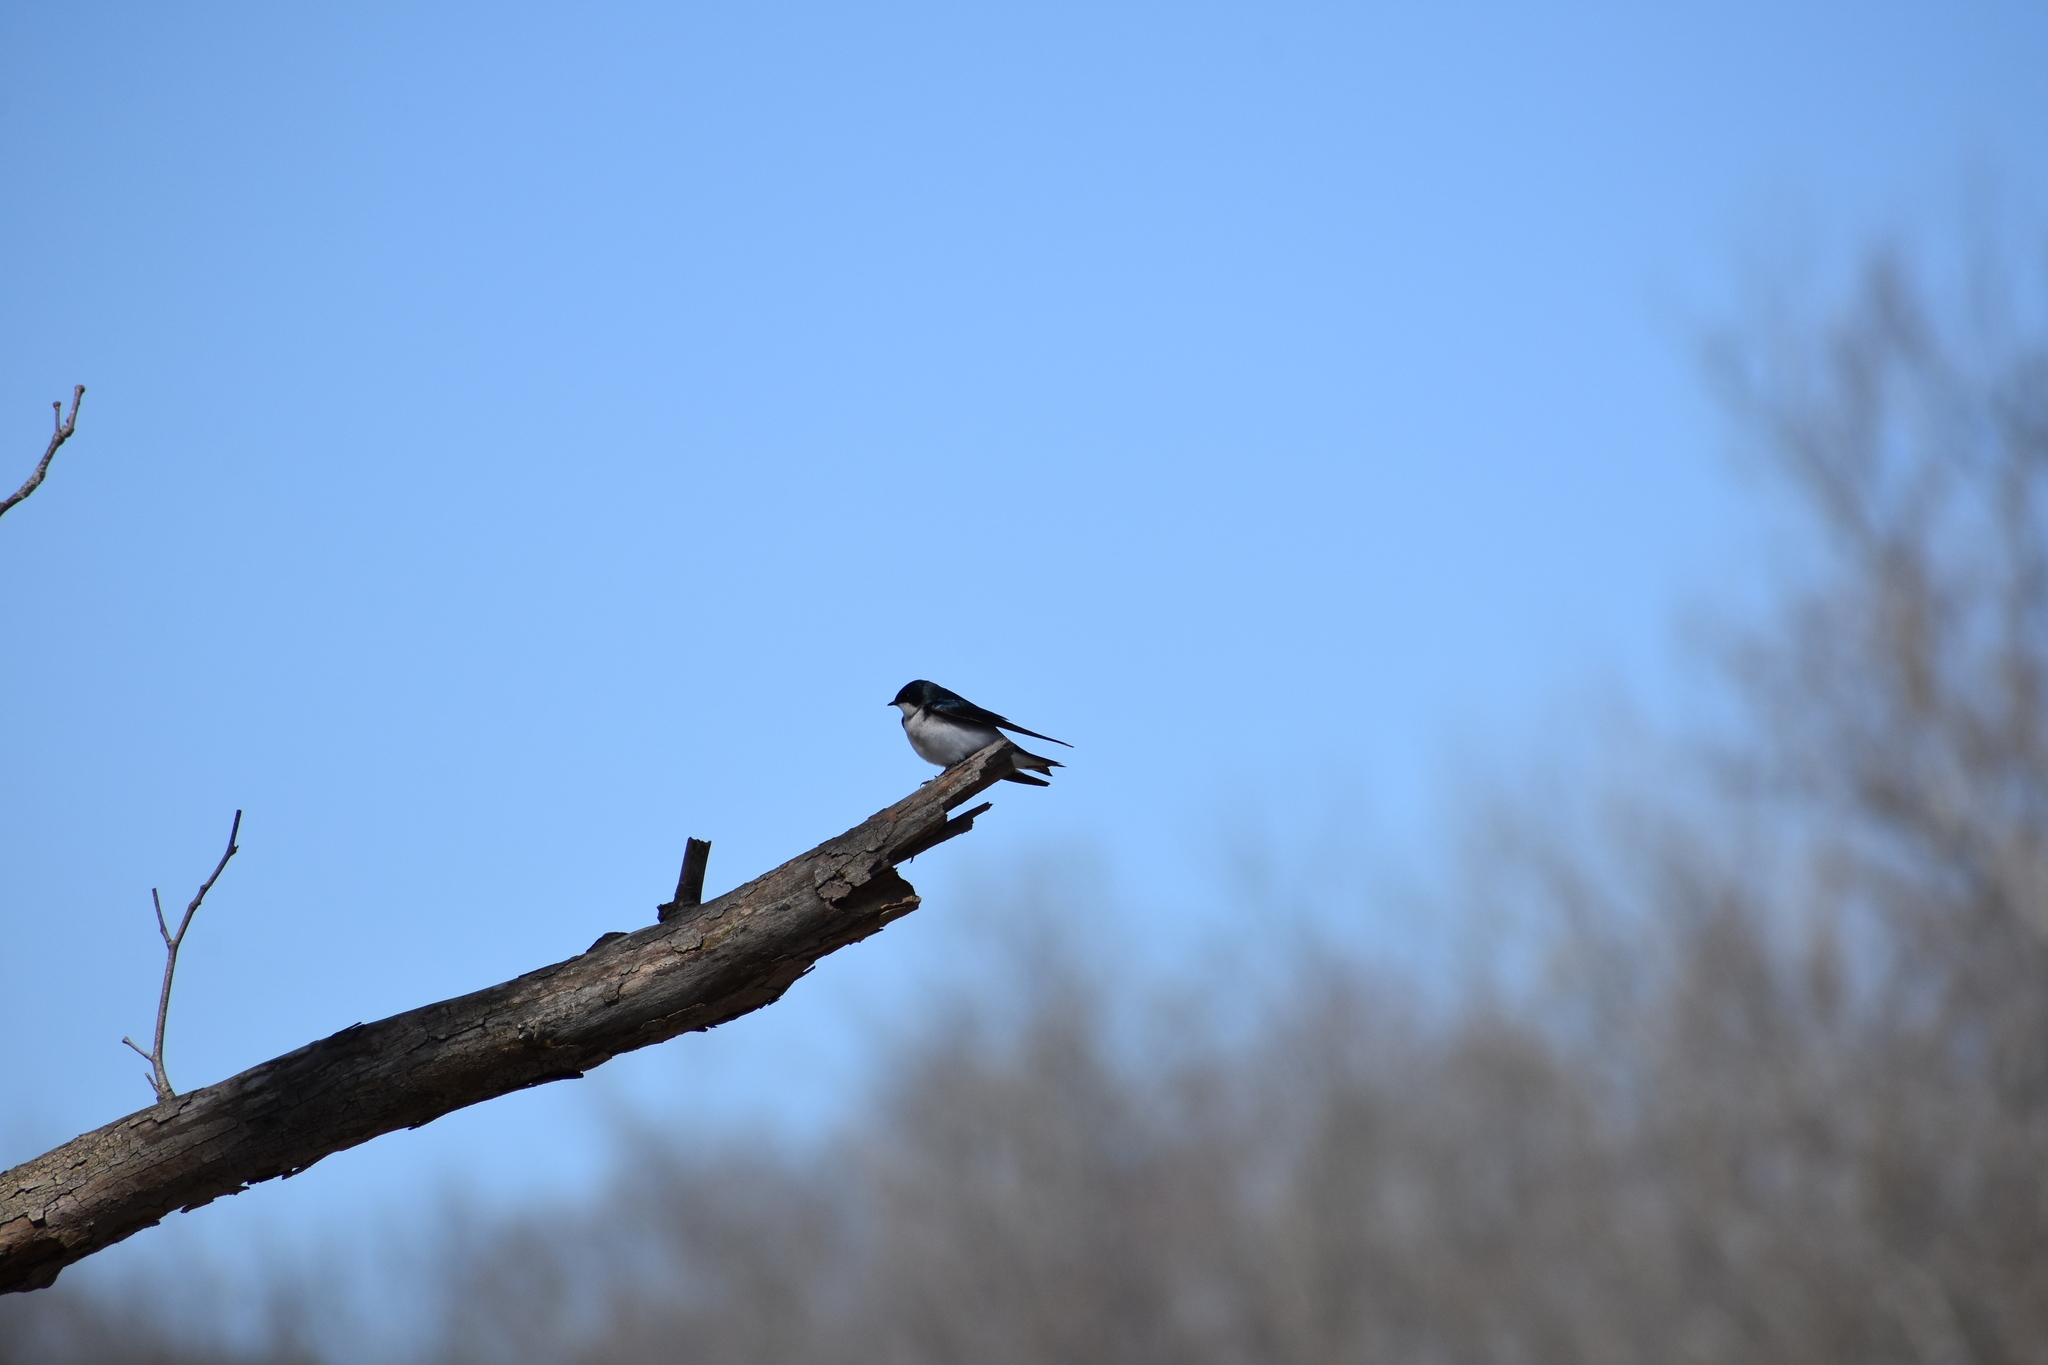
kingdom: Animalia
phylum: Chordata
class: Aves
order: Passeriformes
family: Hirundinidae
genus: Tachycineta
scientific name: Tachycineta bicolor
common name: Tree swallow
